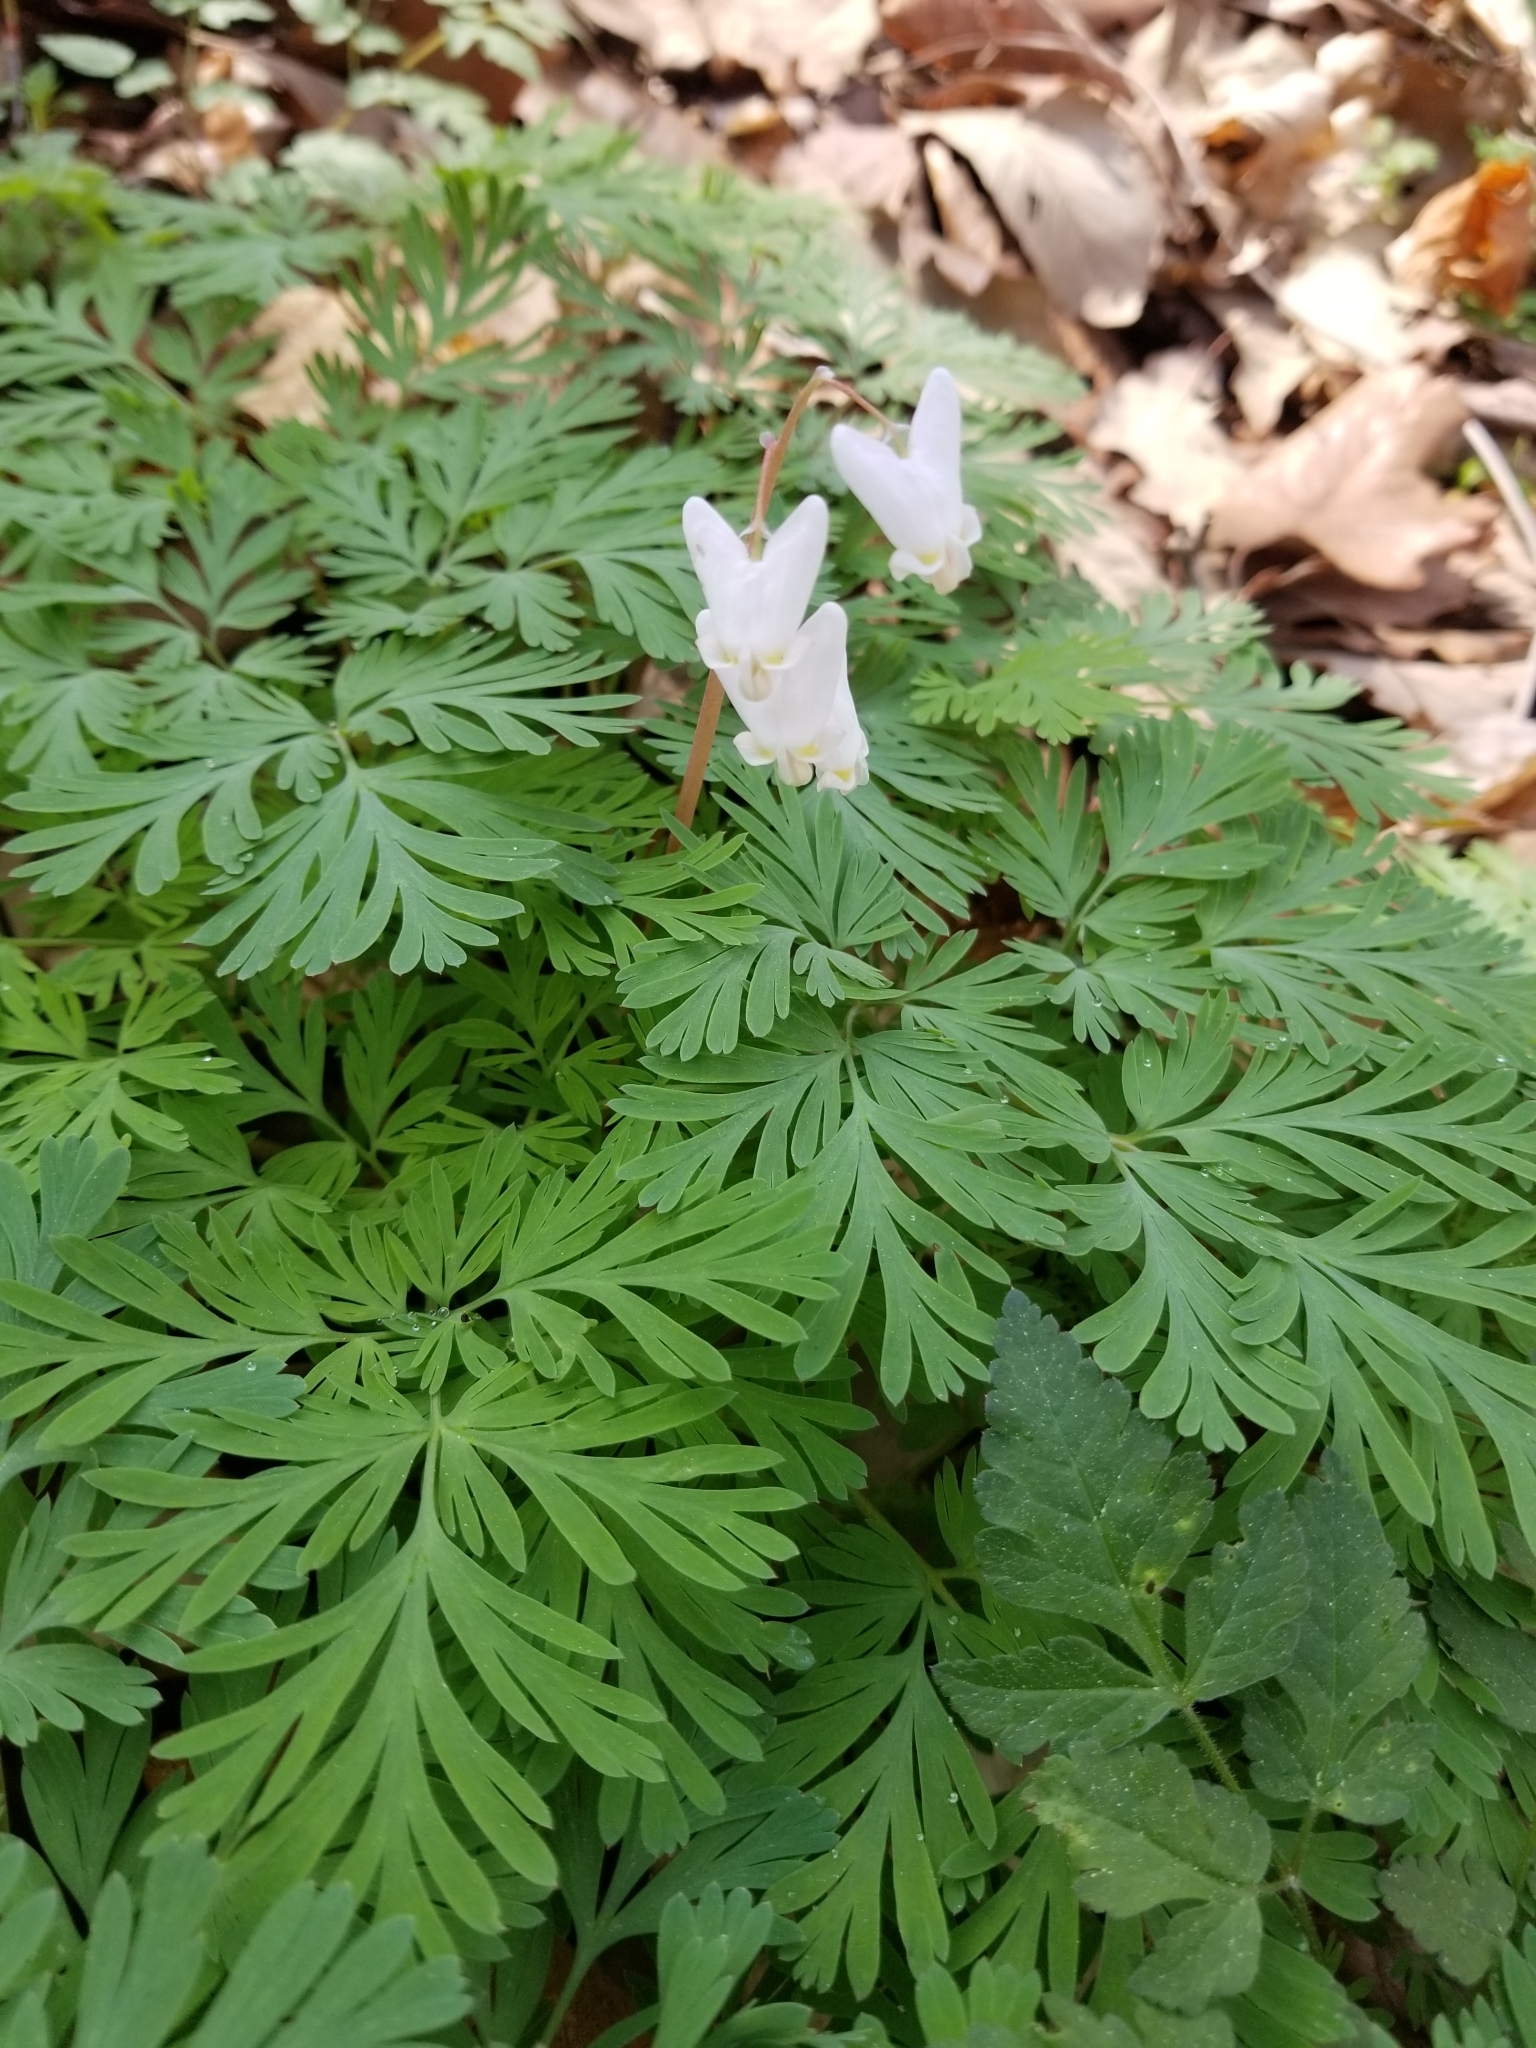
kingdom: Plantae
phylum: Tracheophyta
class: Magnoliopsida
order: Ranunculales
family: Papaveraceae
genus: Dicentra
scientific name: Dicentra cucullaria
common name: Dutchman's breeches
